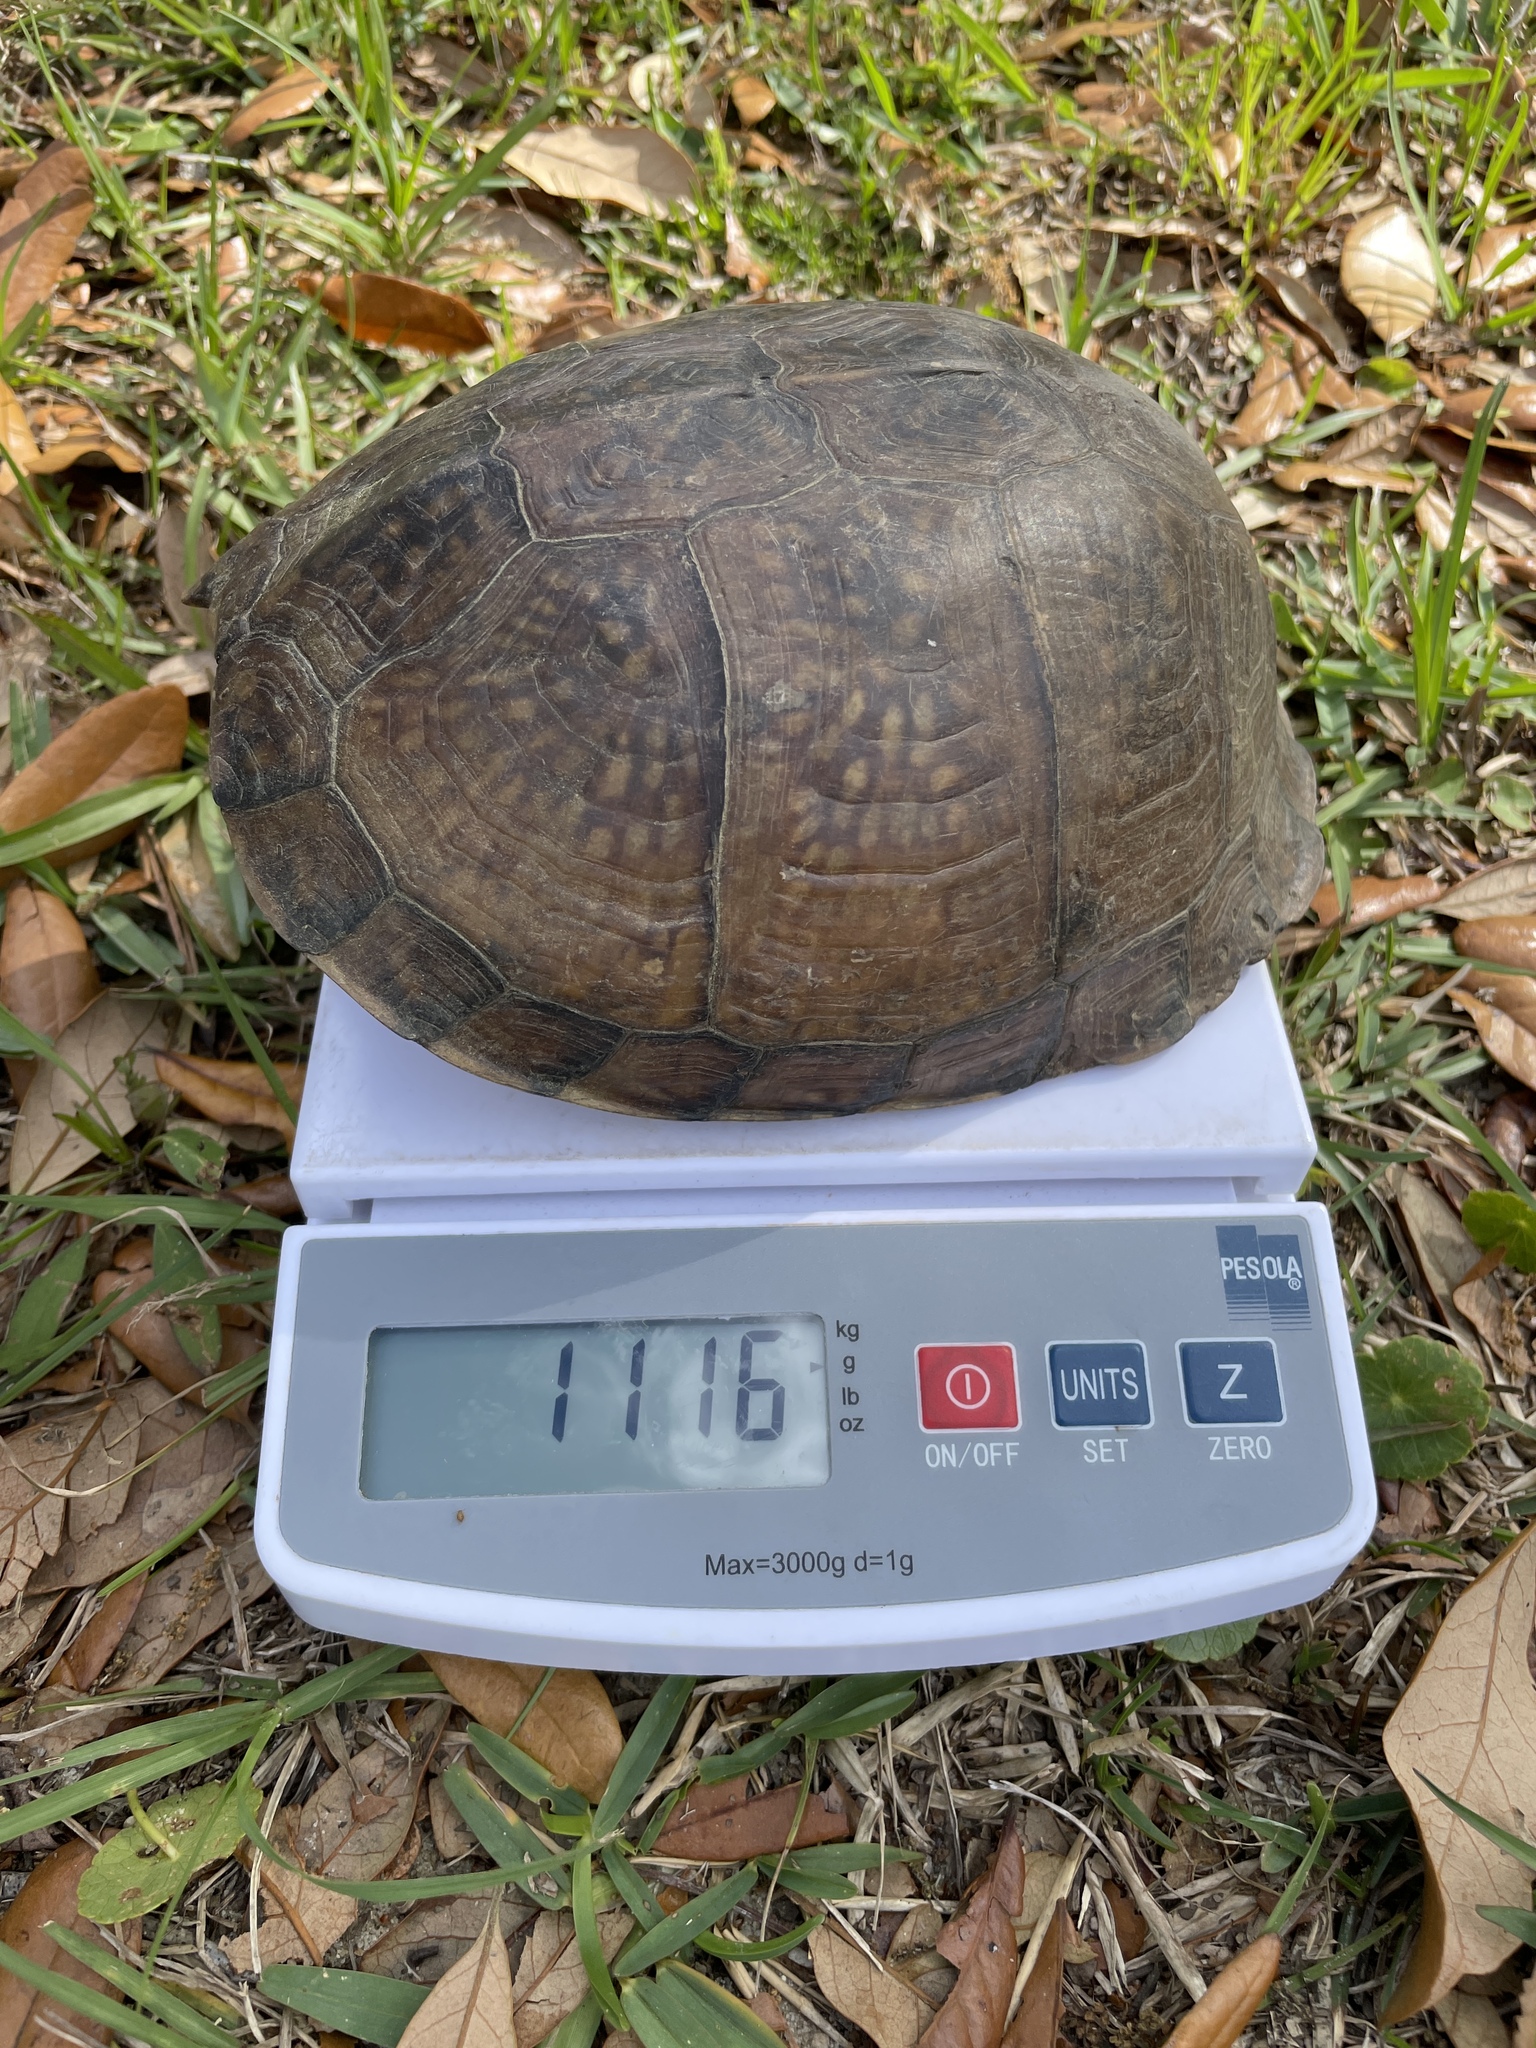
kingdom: Animalia
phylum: Chordata
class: Testudines
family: Emydidae
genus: Terrapene
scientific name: Terrapene carolina
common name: Common box turtle
